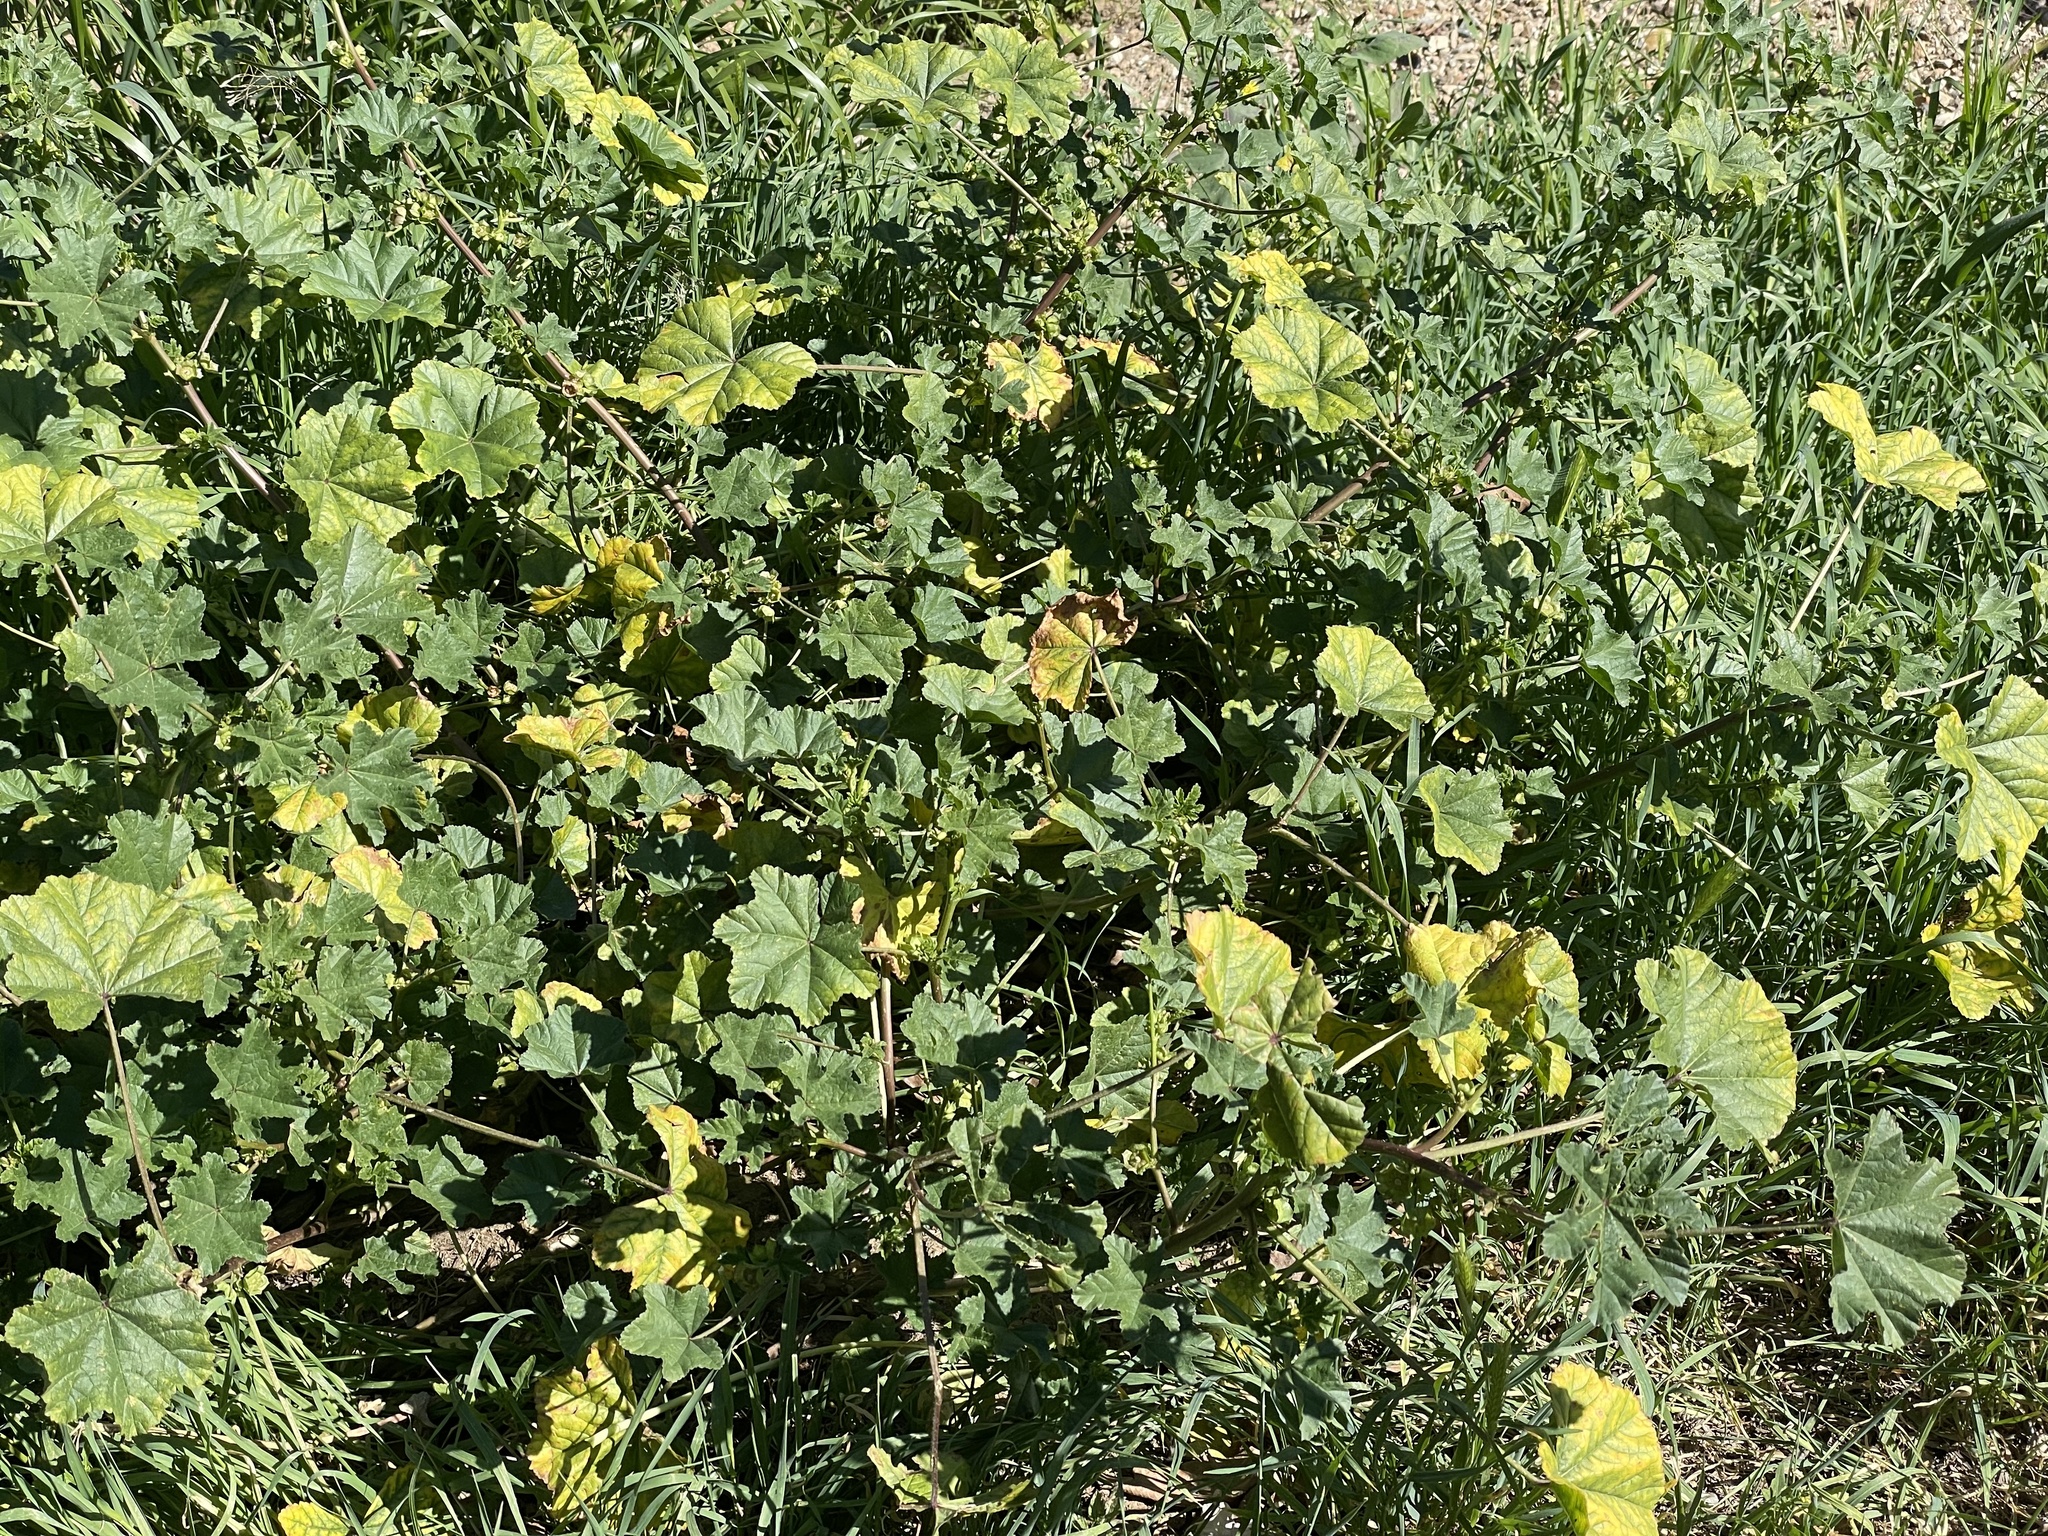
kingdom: Plantae
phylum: Tracheophyta
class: Magnoliopsida
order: Malvales
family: Malvaceae
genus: Malva
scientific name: Malva parviflora
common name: Least mallow
